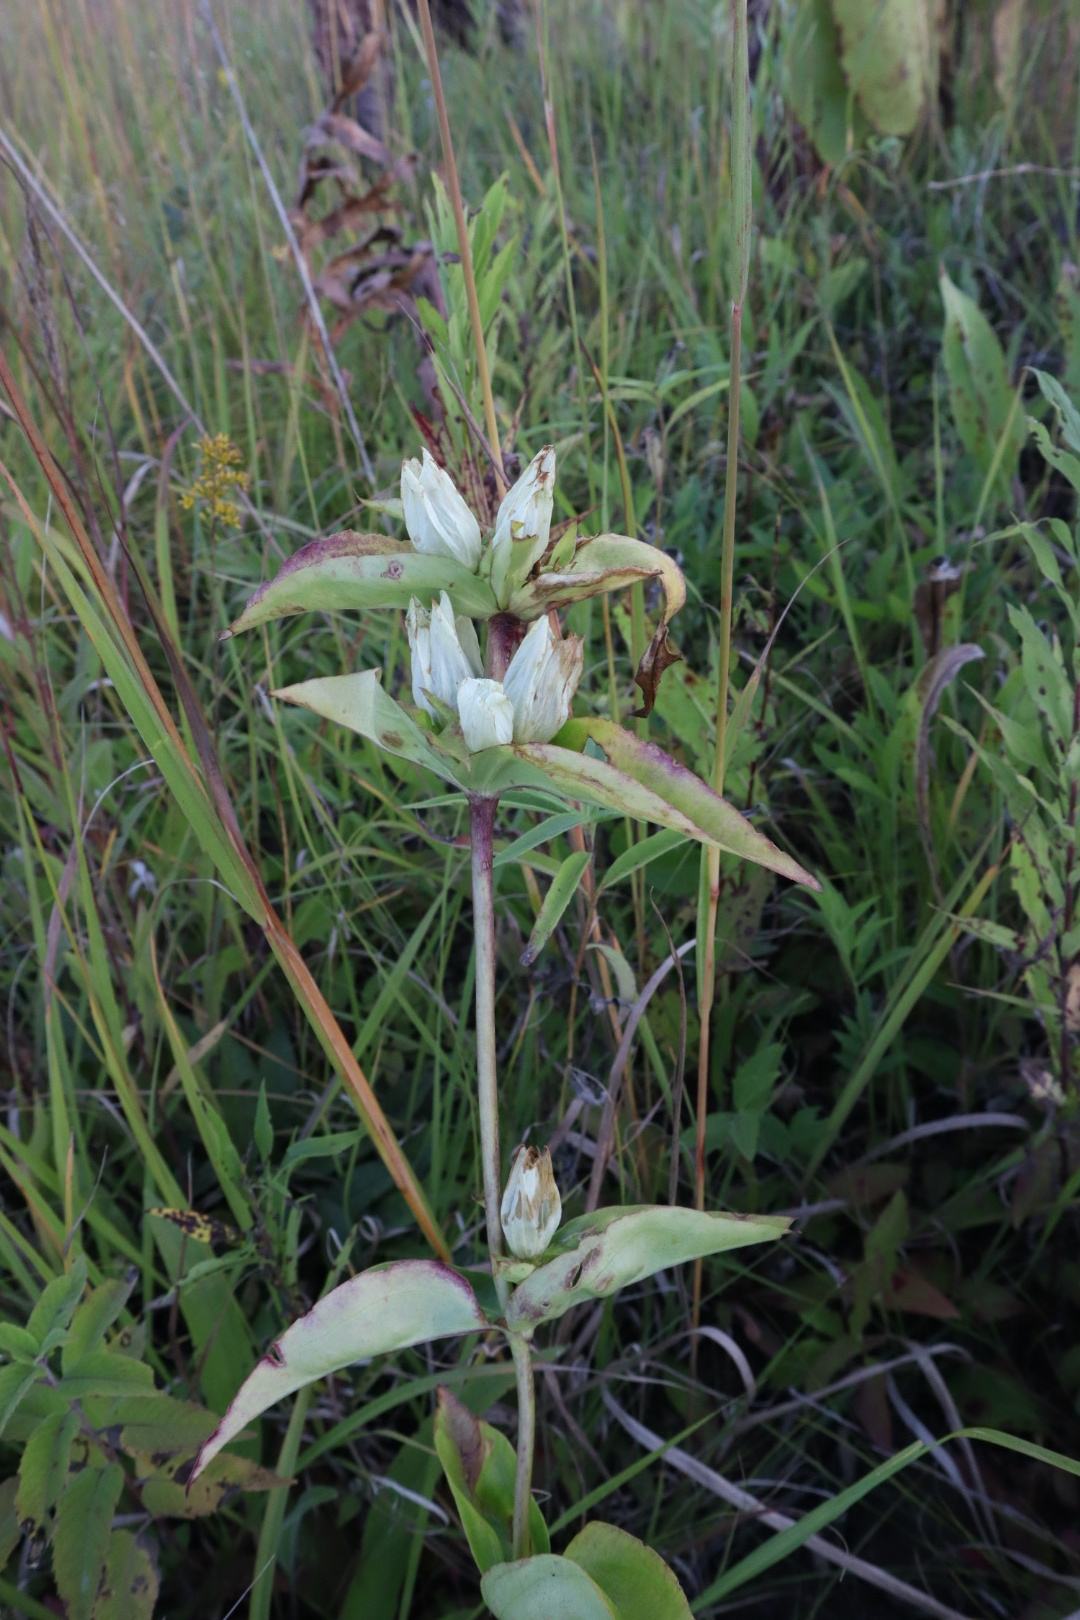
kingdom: Plantae
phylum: Tracheophyta
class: Magnoliopsida
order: Gentianales
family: Gentianaceae
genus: Gentiana
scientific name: Gentiana alba
